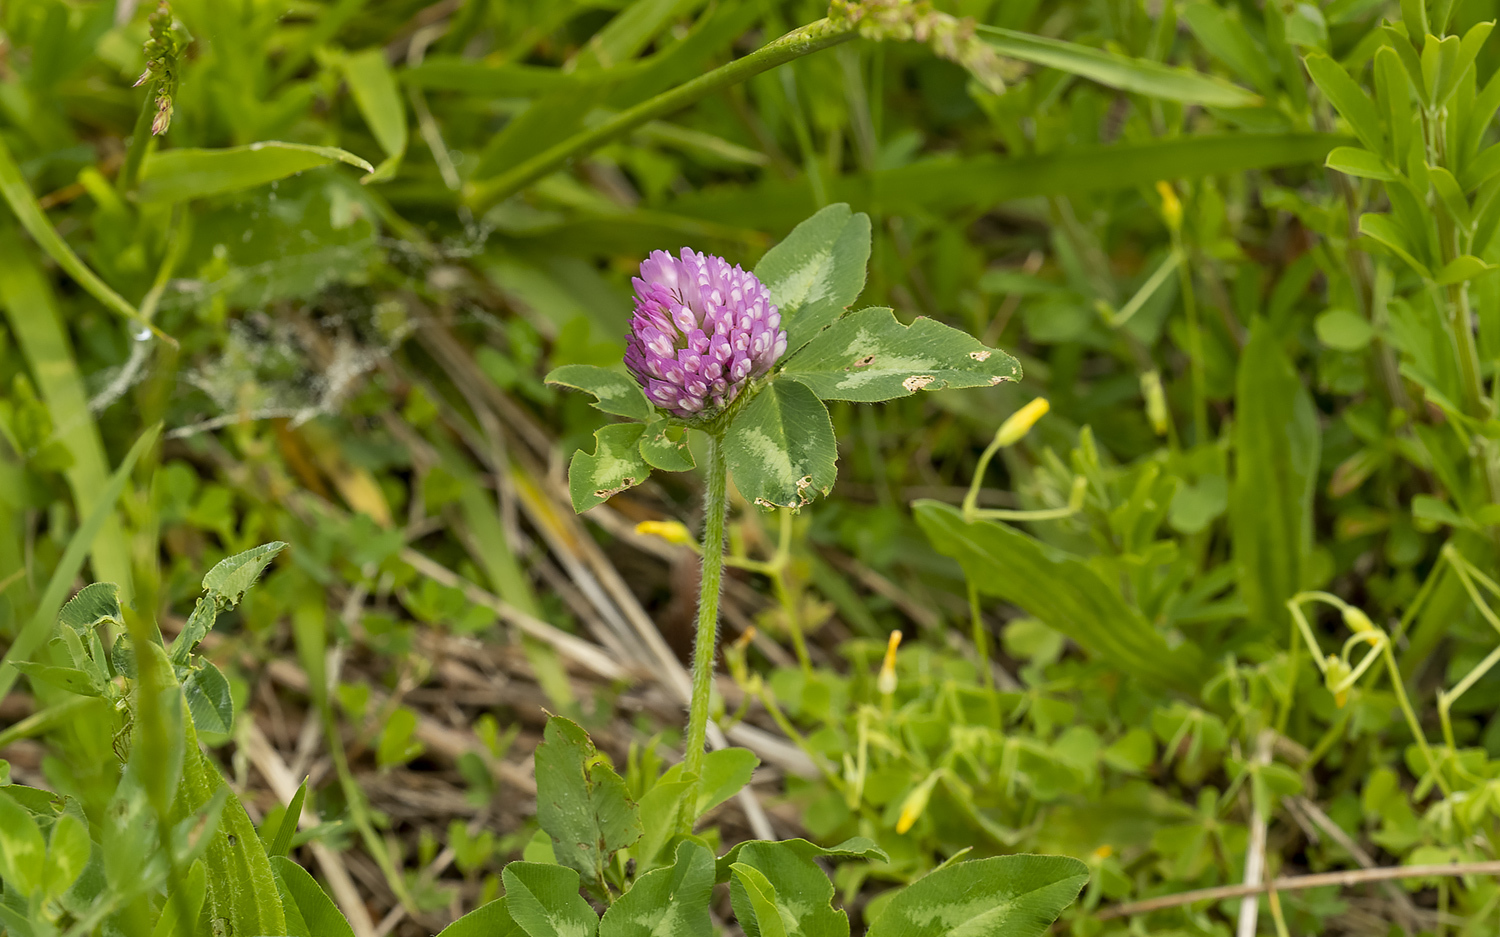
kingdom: Plantae
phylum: Tracheophyta
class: Magnoliopsida
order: Fabales
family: Fabaceae
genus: Trifolium
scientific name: Trifolium pratense
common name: Red clover
